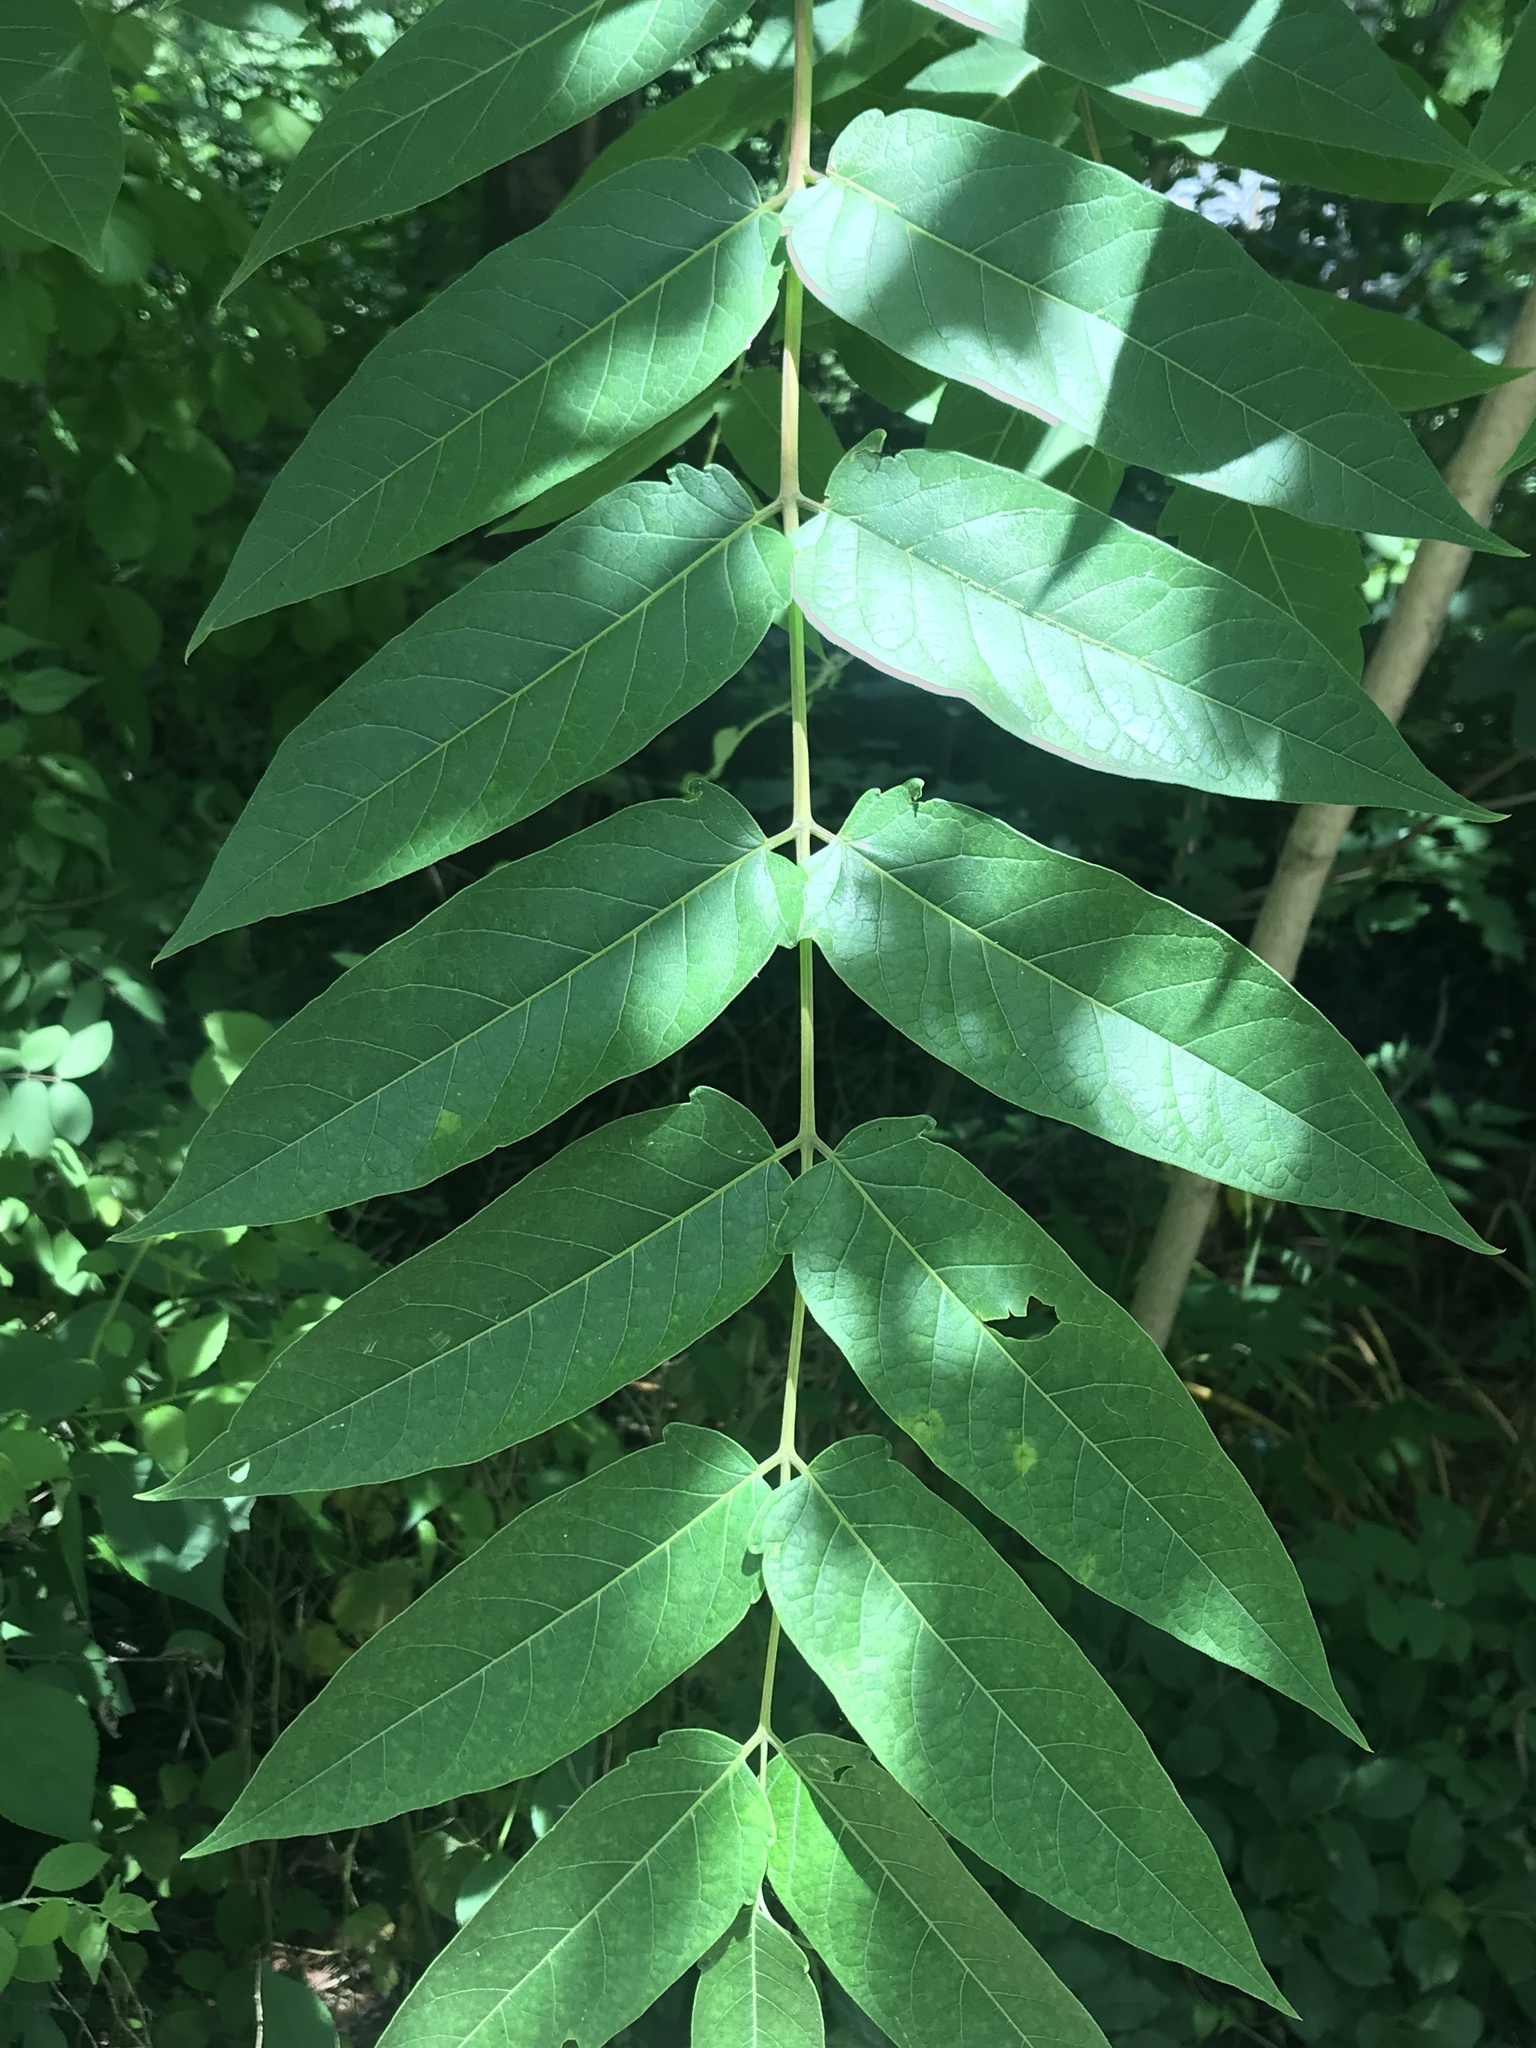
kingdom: Plantae
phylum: Tracheophyta
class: Magnoliopsida
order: Sapindales
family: Simaroubaceae
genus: Ailanthus
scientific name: Ailanthus altissima
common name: Tree-of-heaven
